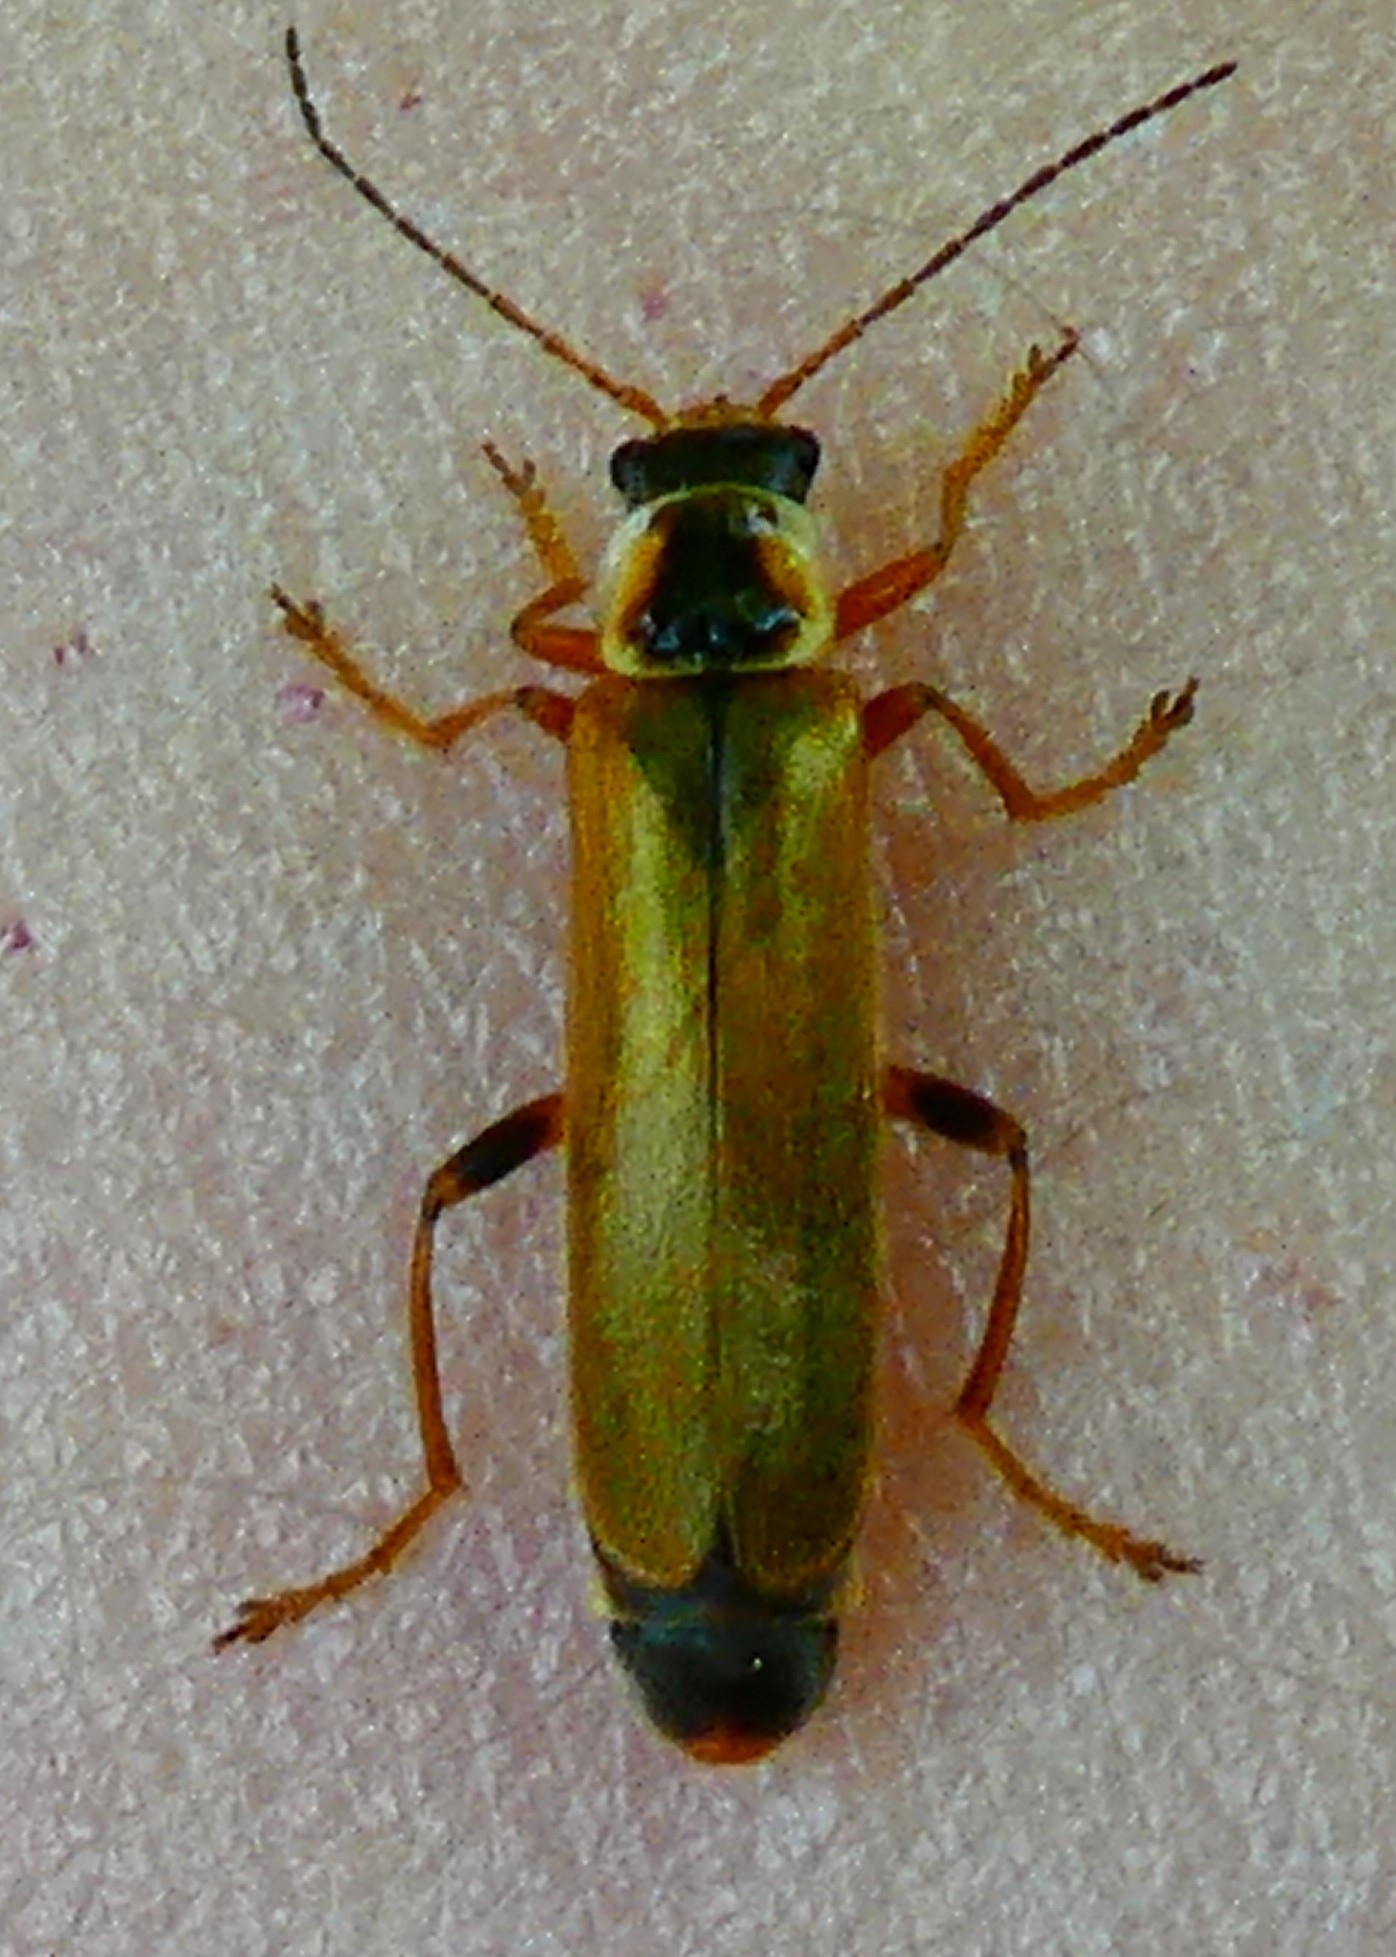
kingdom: Animalia
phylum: Arthropoda
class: Insecta
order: Coleoptera
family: Cantharidae
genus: Cantharis
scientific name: Cantharis decipiens
